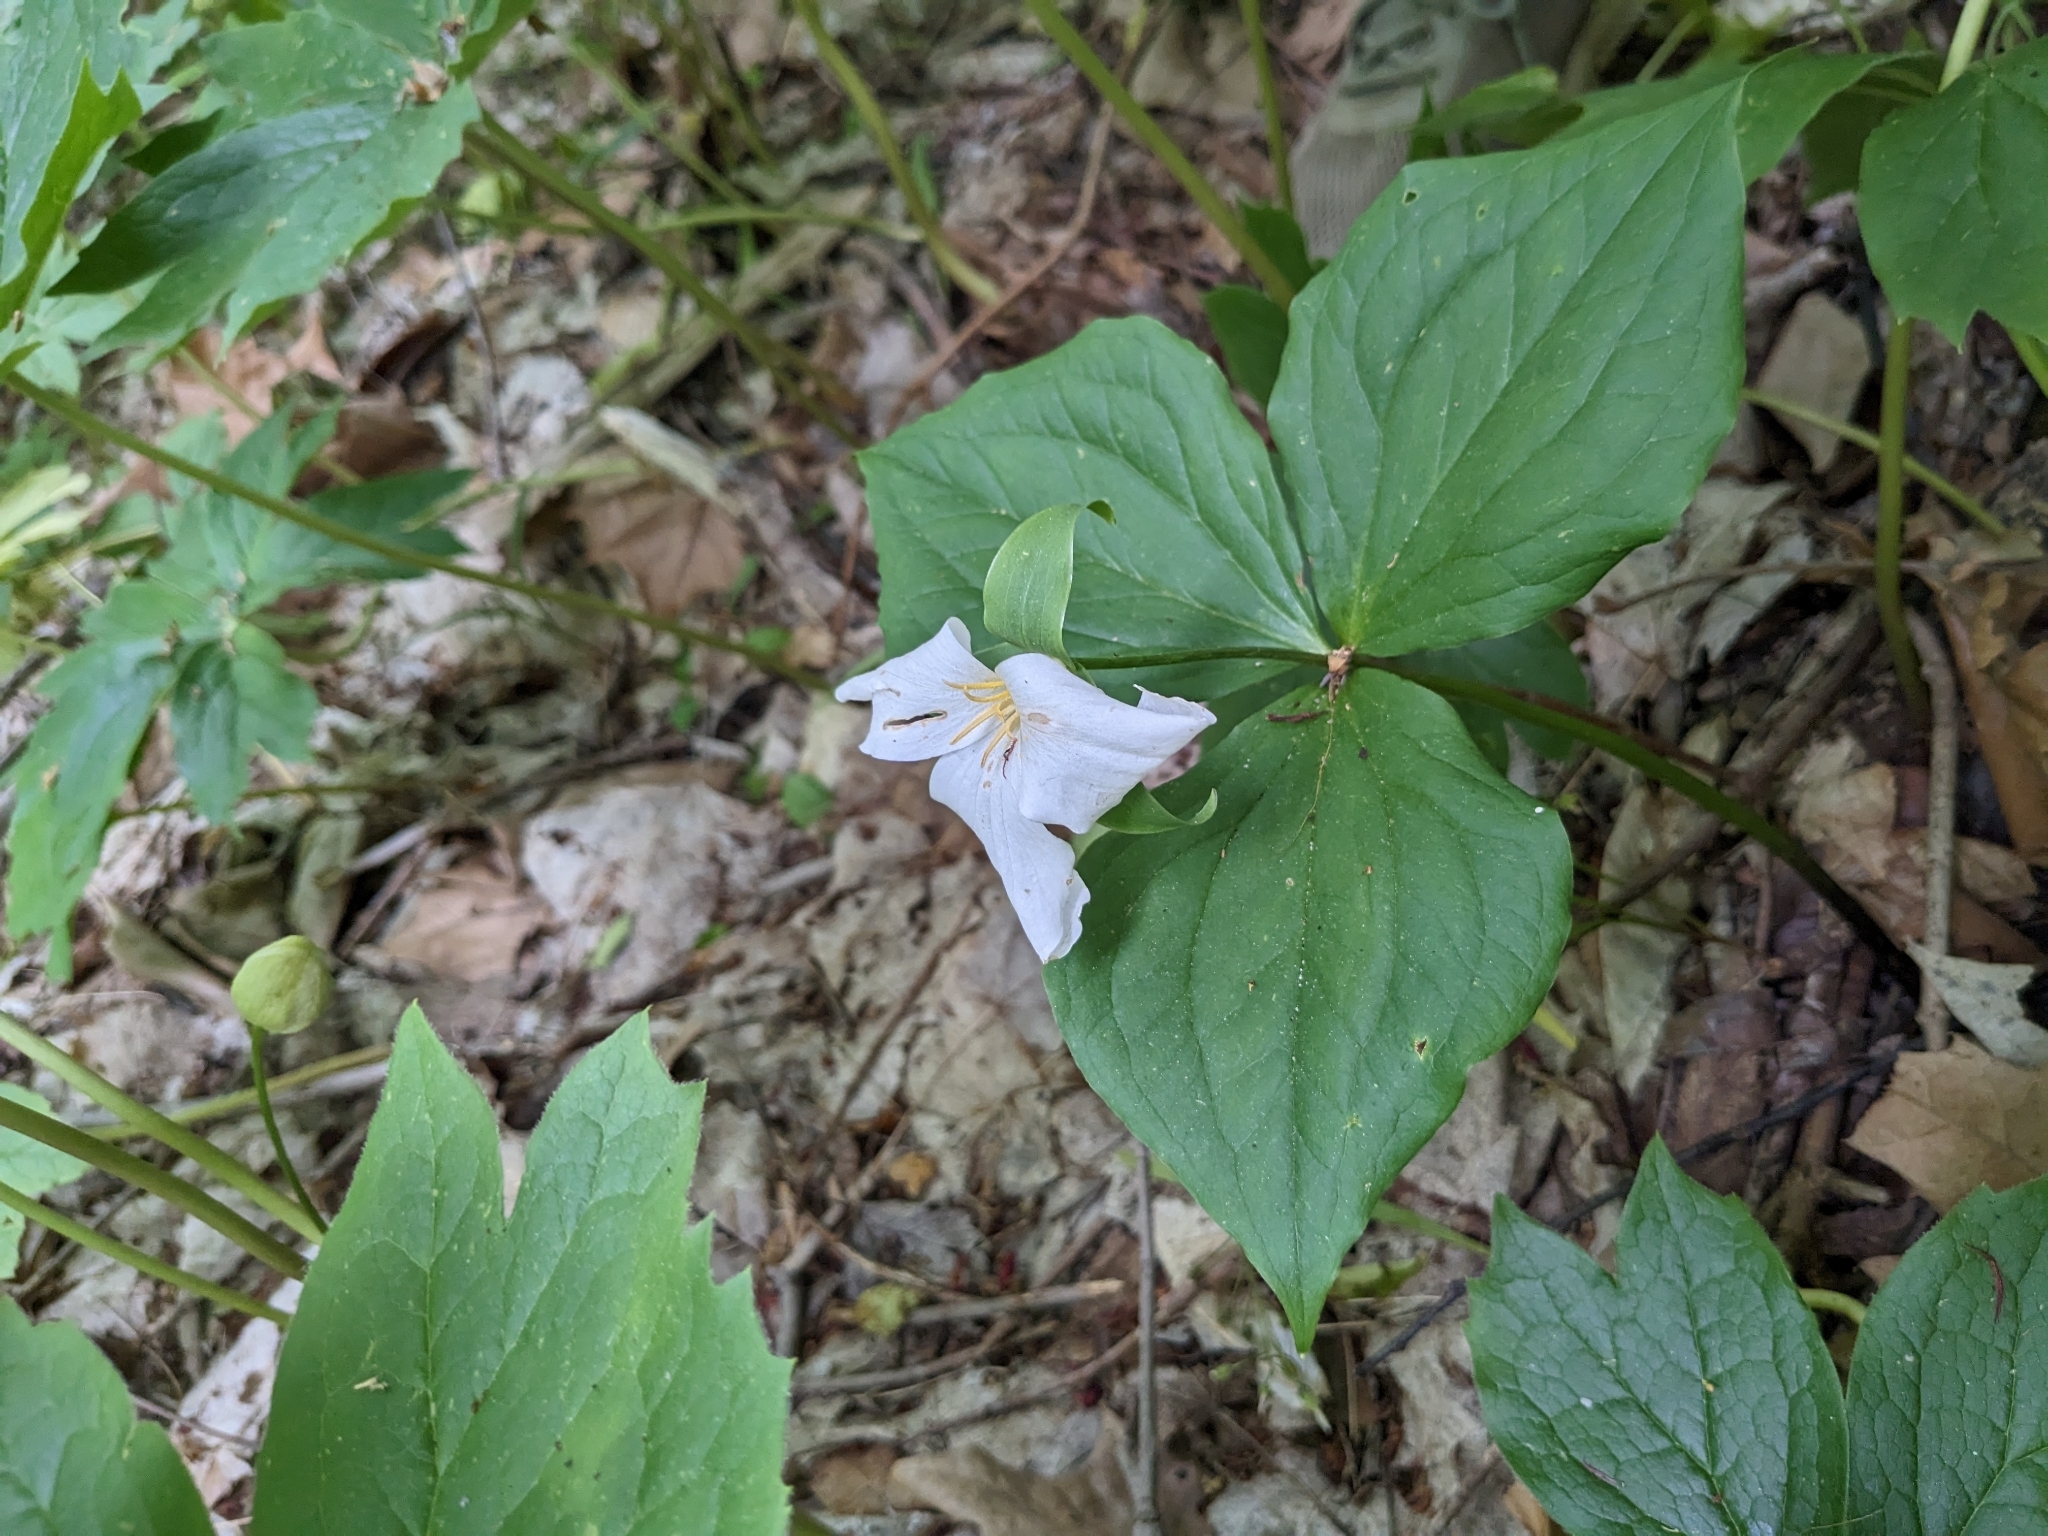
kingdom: Plantae
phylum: Tracheophyta
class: Liliopsida
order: Liliales
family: Melanthiaceae
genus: Trillium
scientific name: Trillium grandiflorum
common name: Great white trillium
